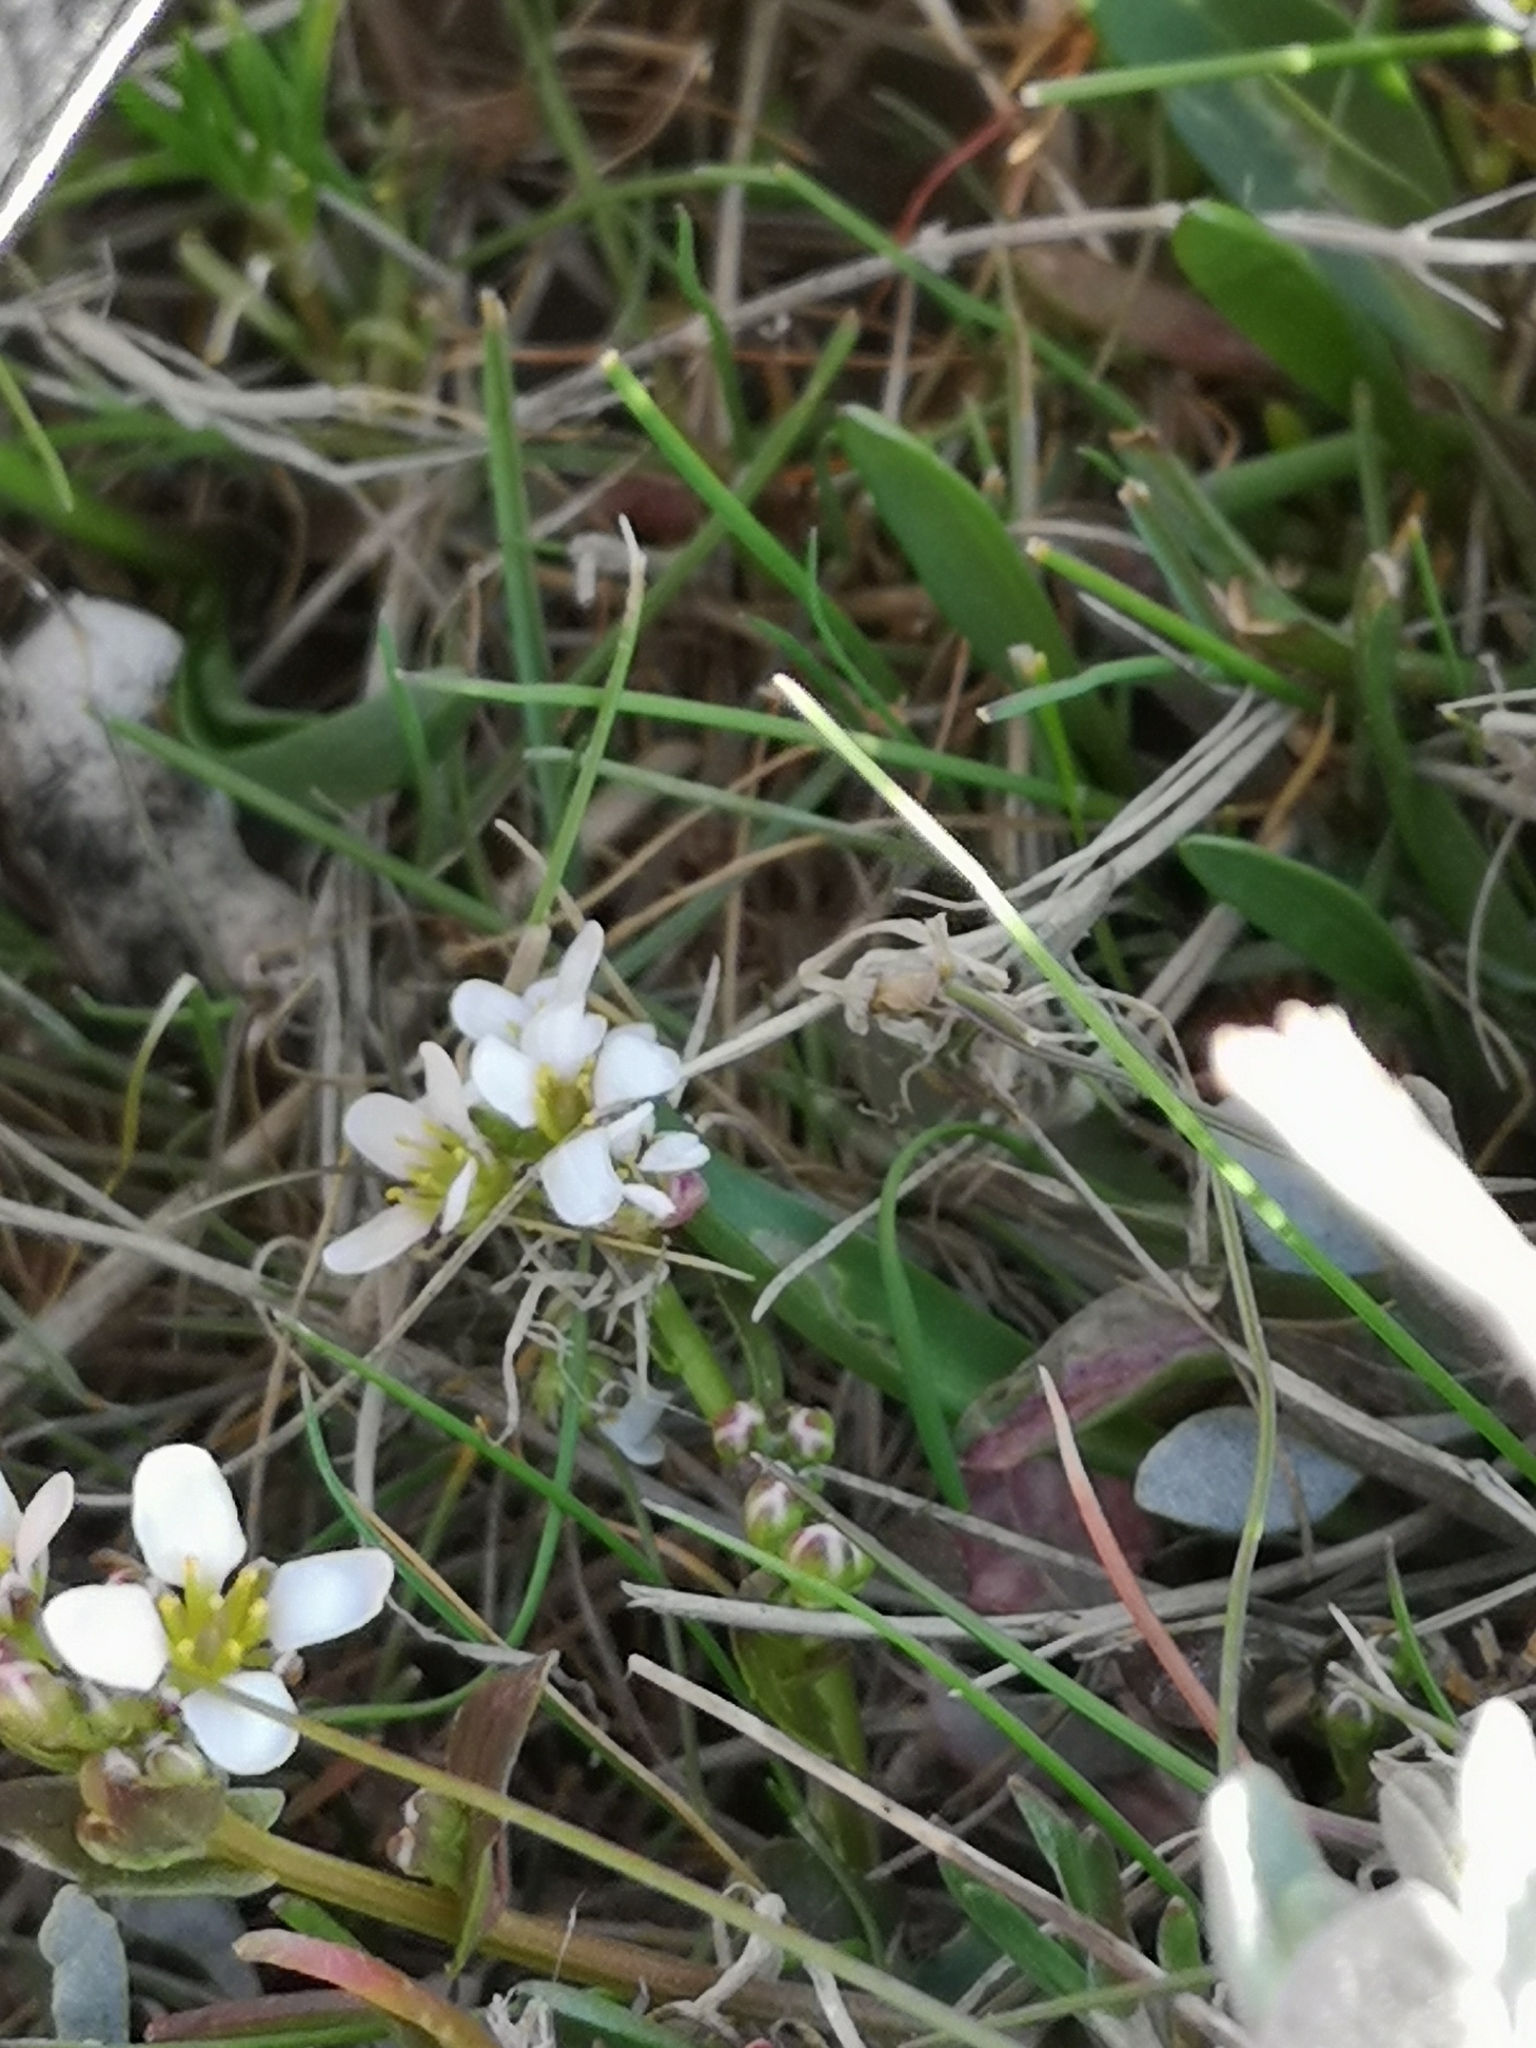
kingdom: Plantae
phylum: Tracheophyta
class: Magnoliopsida
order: Brassicales
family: Brassicaceae
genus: Cochlearia
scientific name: Cochlearia danica
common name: Early scurvygrass
